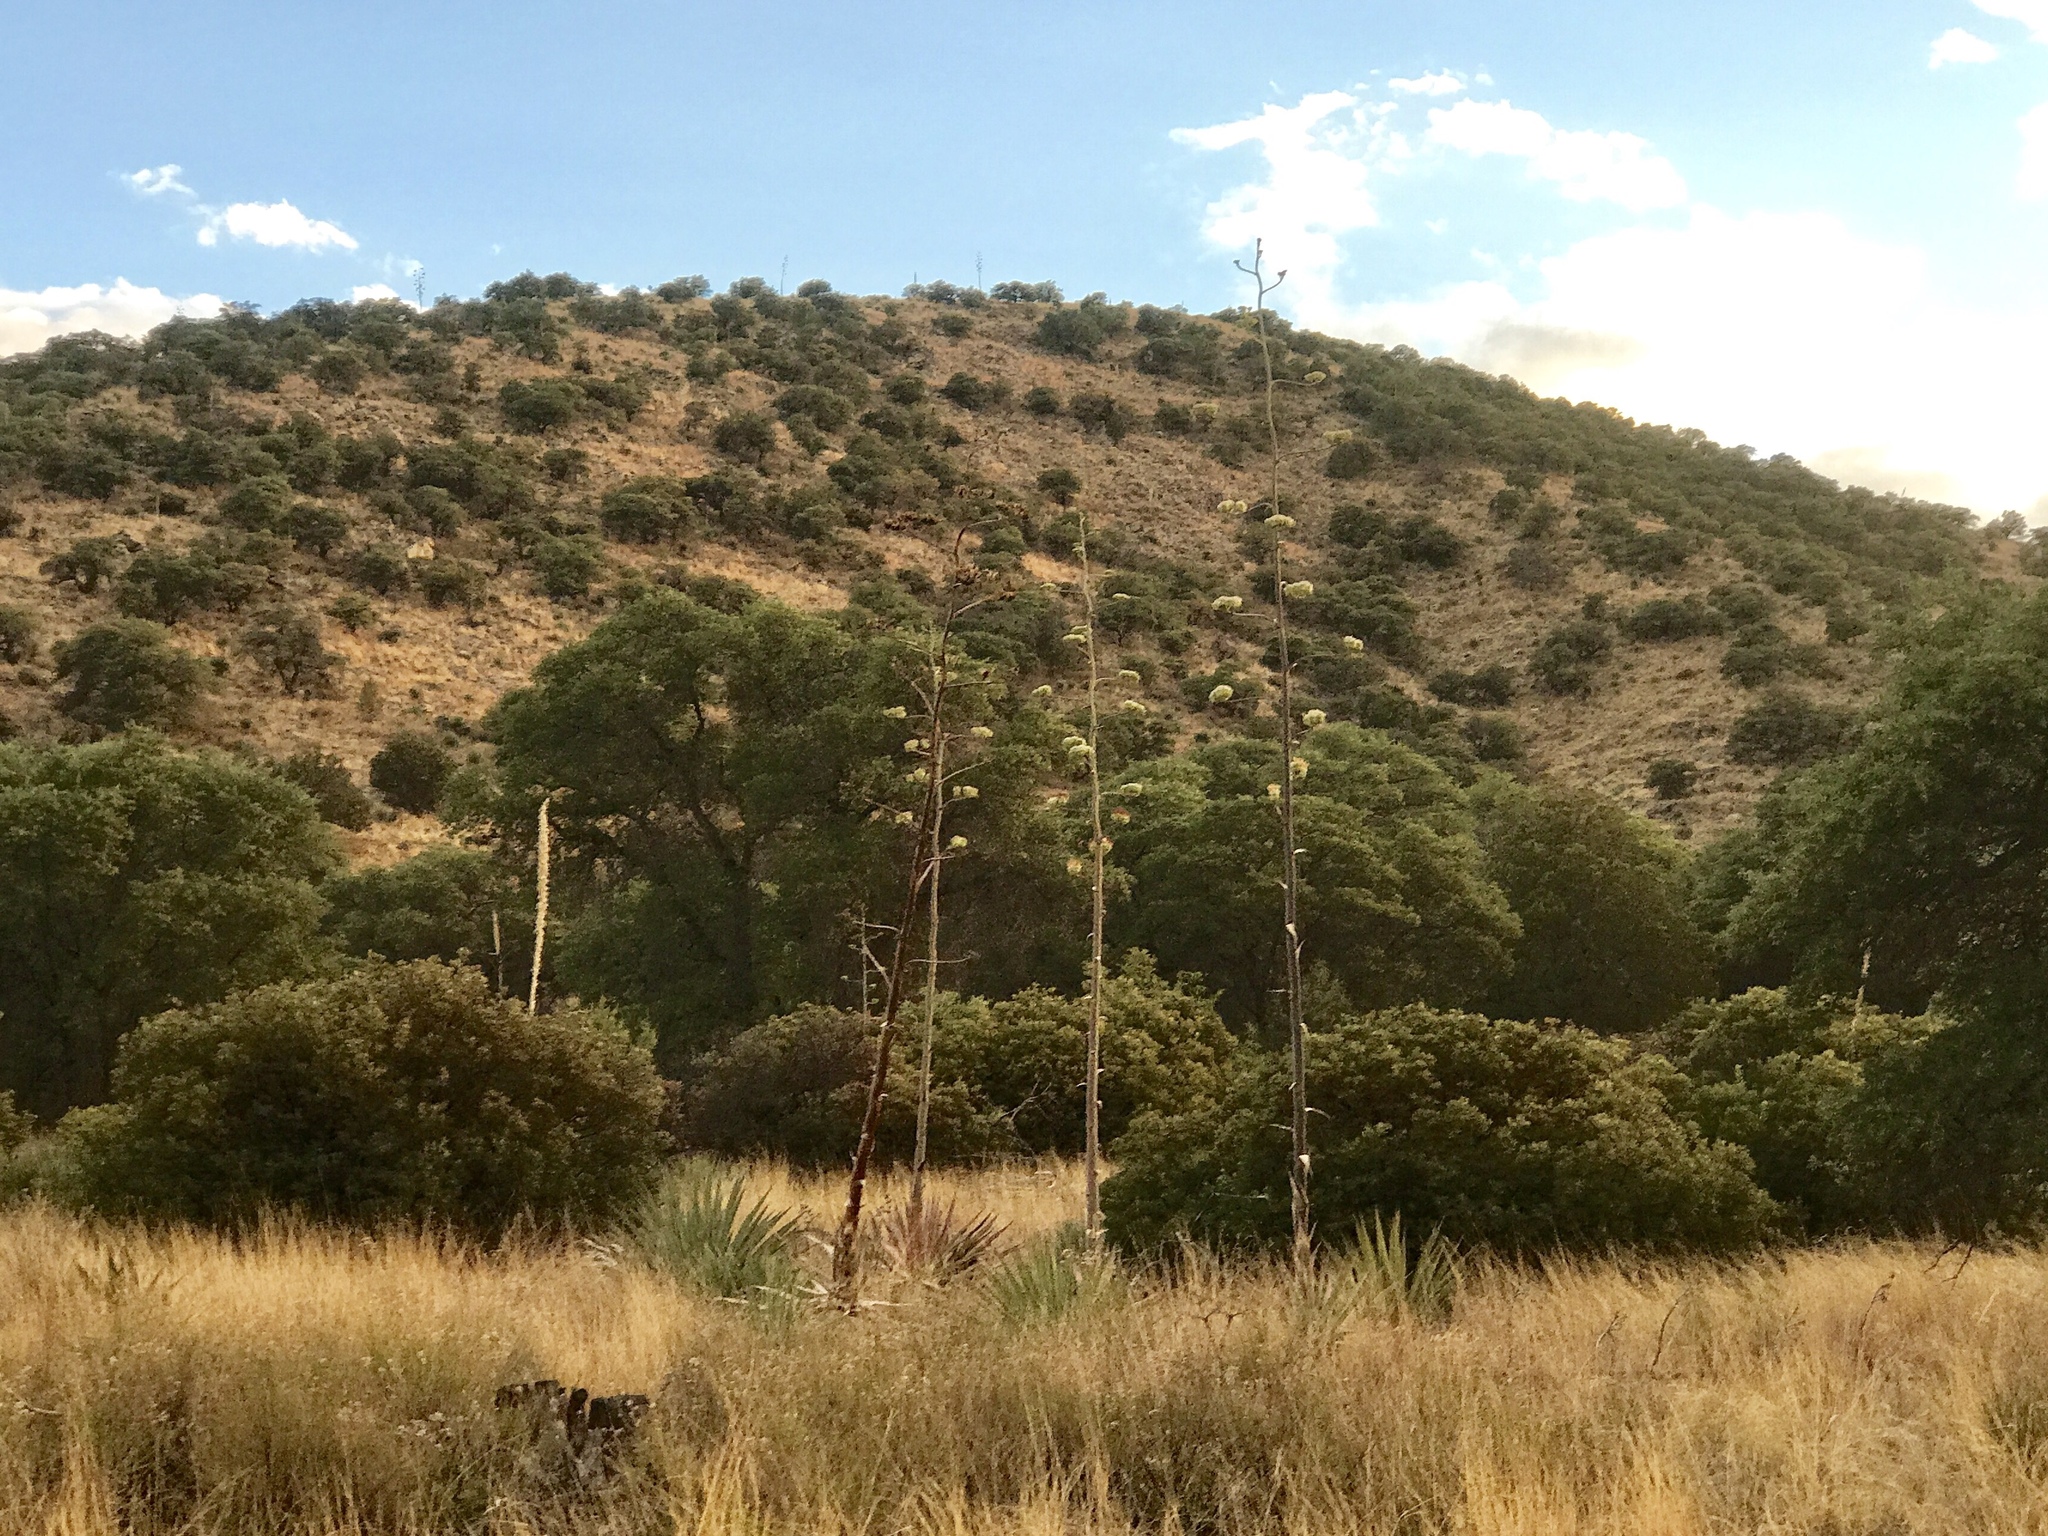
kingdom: Plantae
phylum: Tracheophyta
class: Liliopsida
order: Asparagales
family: Asparagaceae
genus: Agave
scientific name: Agave palmeri
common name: Palmer agave
